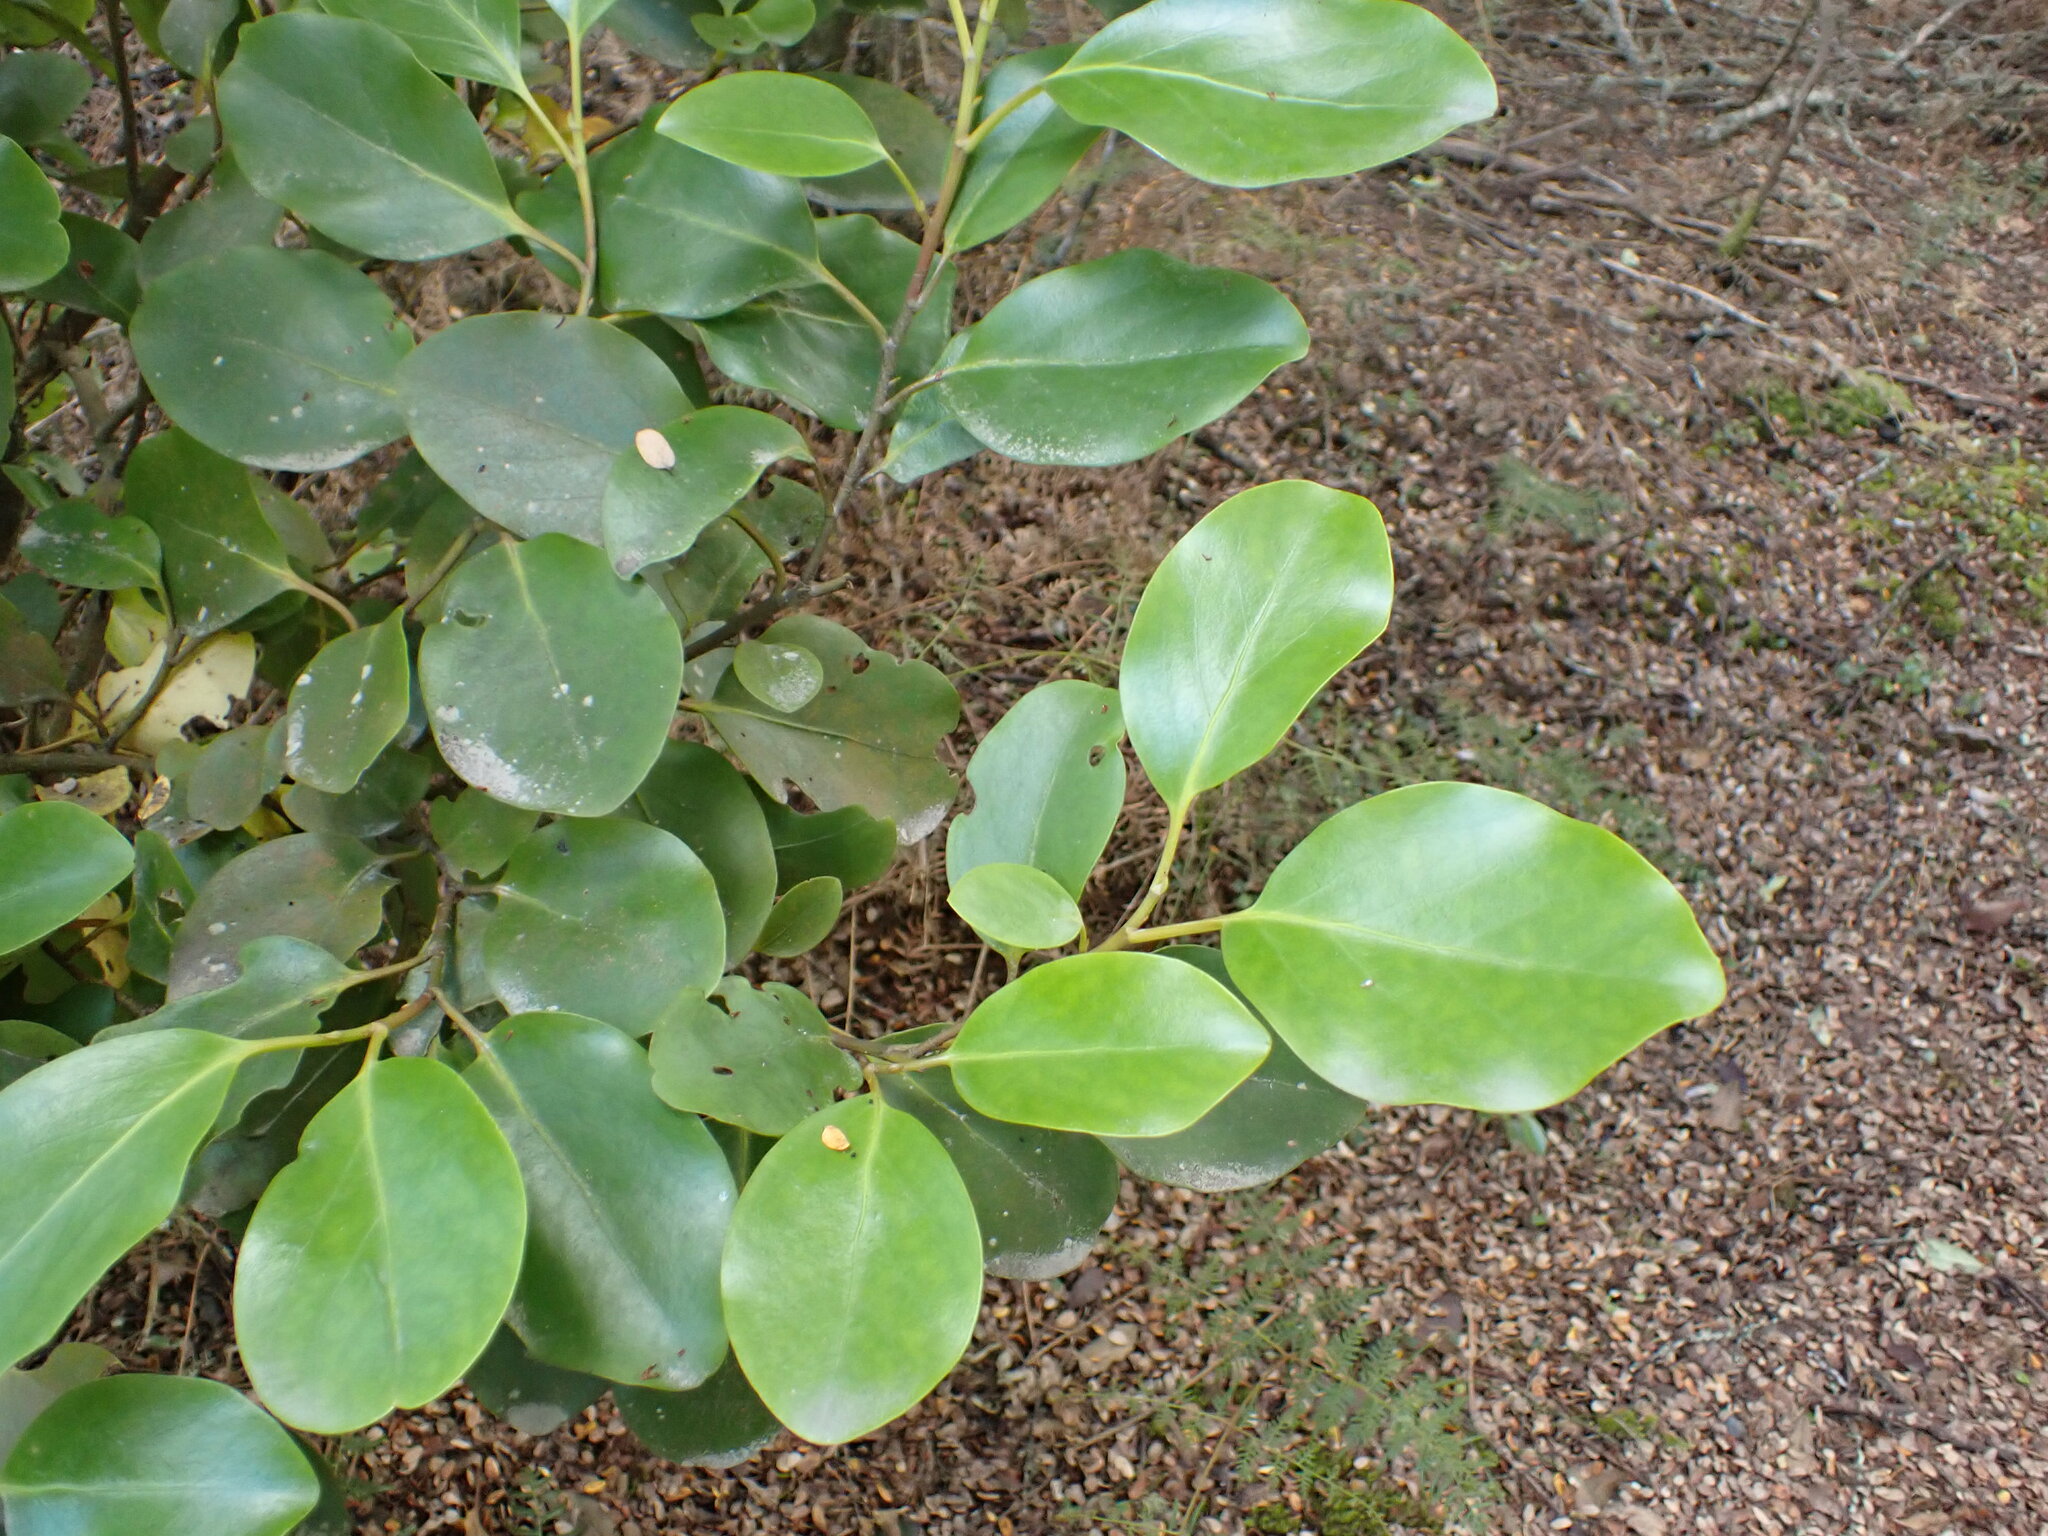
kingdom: Plantae
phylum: Tracheophyta
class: Magnoliopsida
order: Apiales
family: Griseliniaceae
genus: Griselinia
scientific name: Griselinia littoralis
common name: New zealand broadleaf
